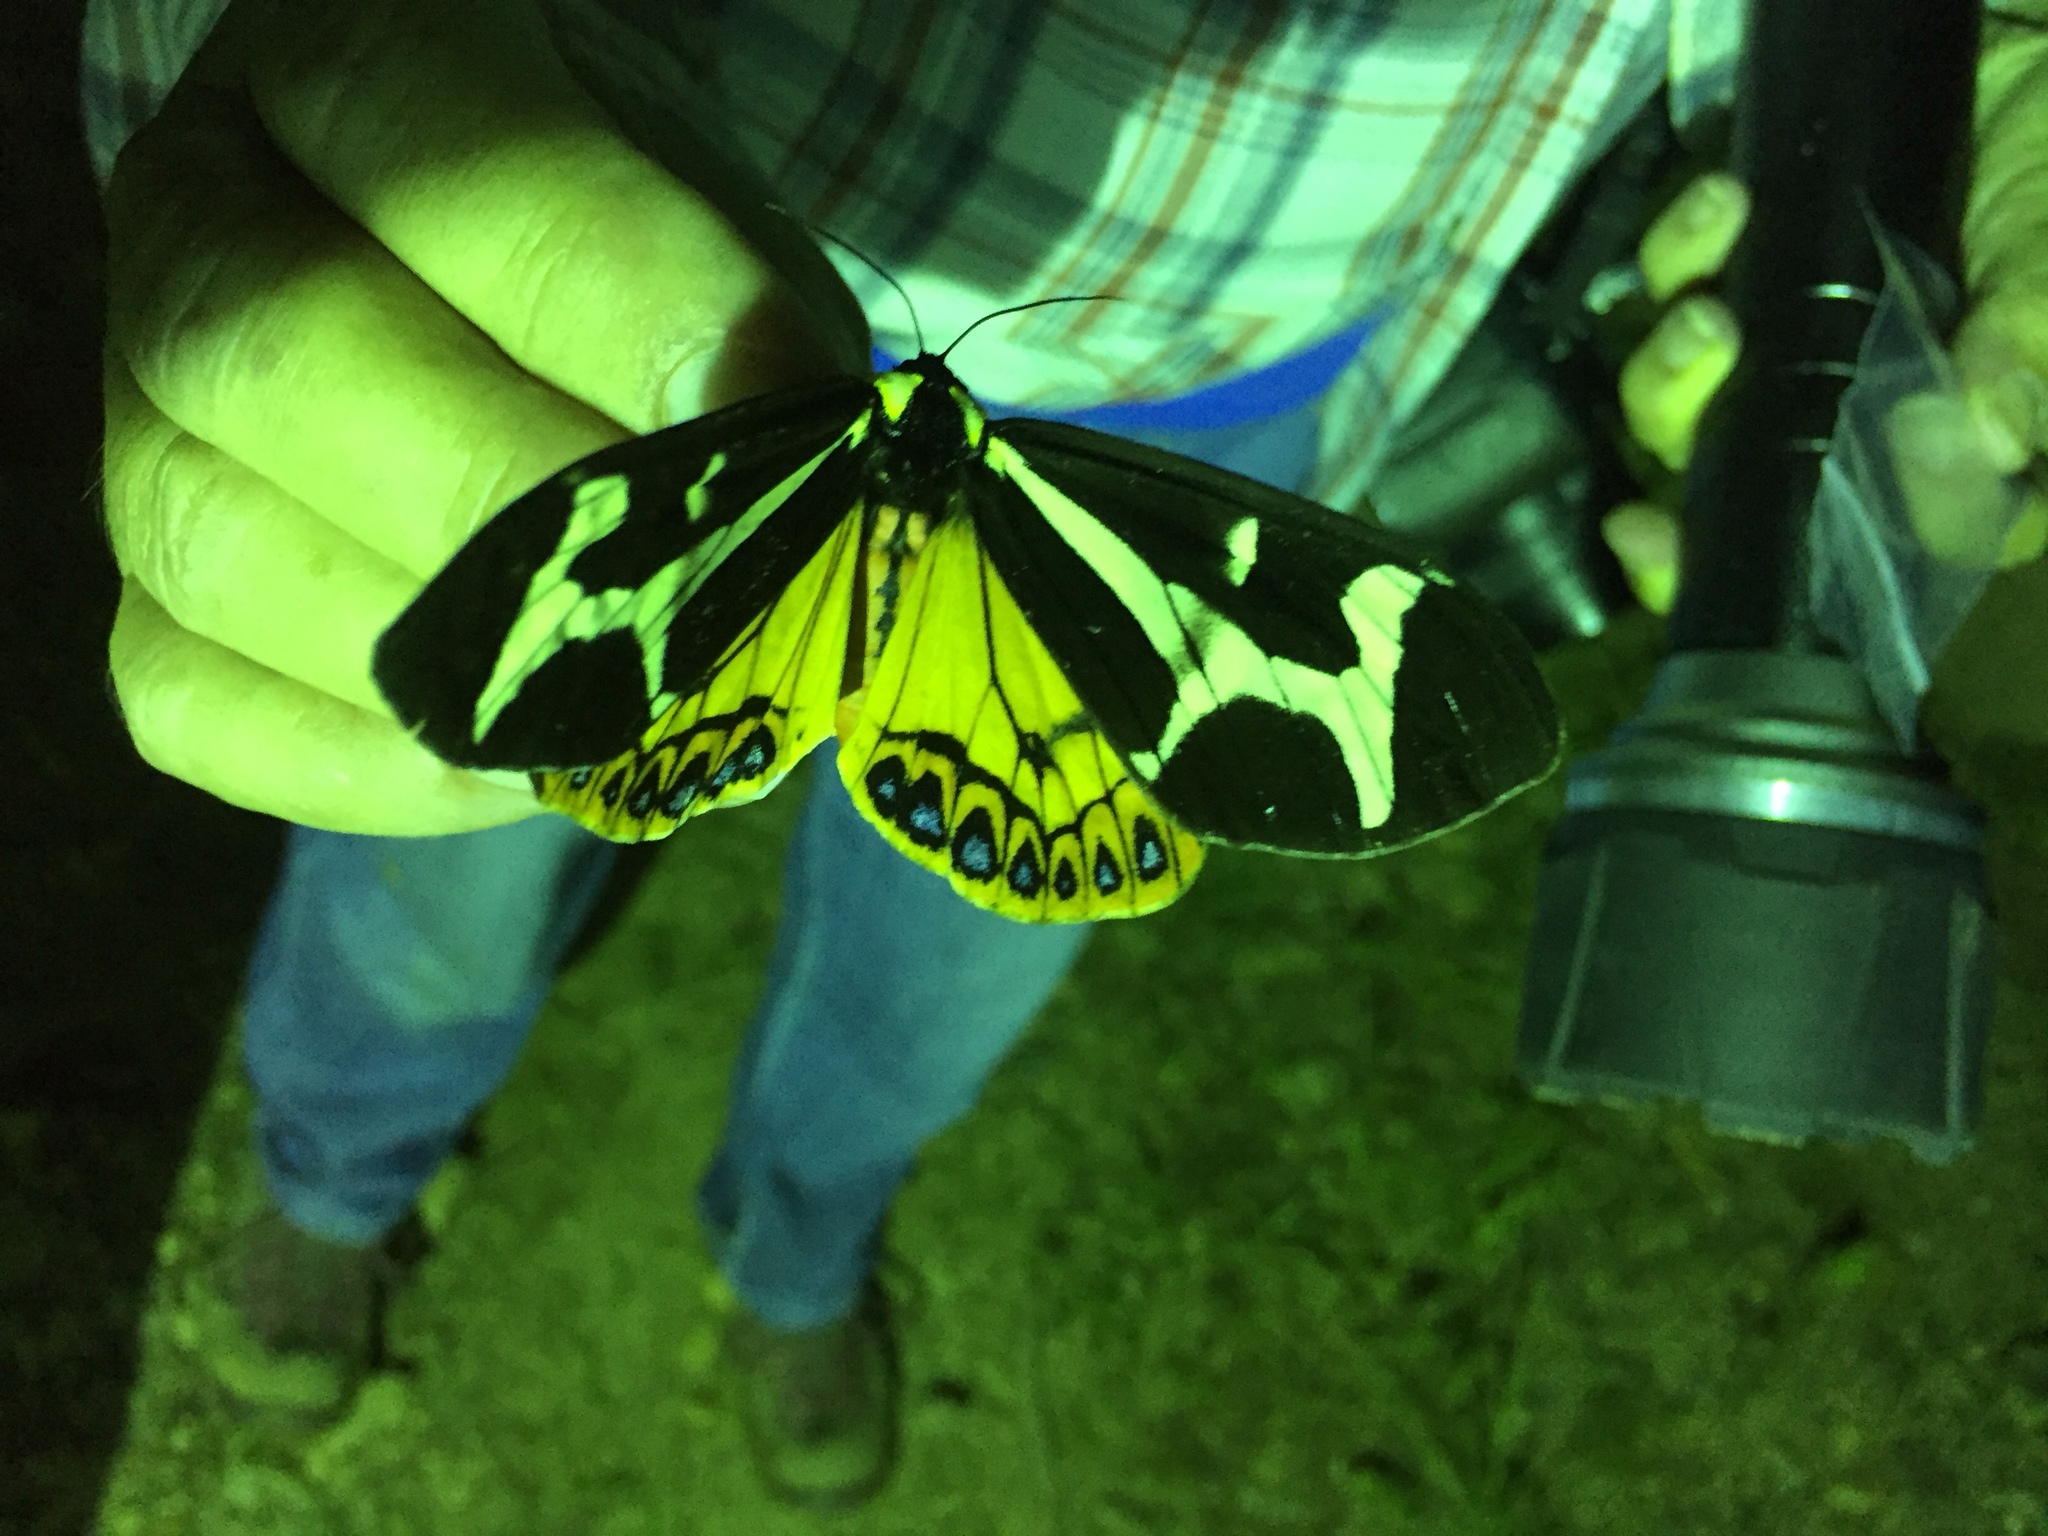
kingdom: Animalia
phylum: Arthropoda
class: Insecta
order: Lepidoptera
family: Erebidae
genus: Dysschema
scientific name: Dysschema howardi
